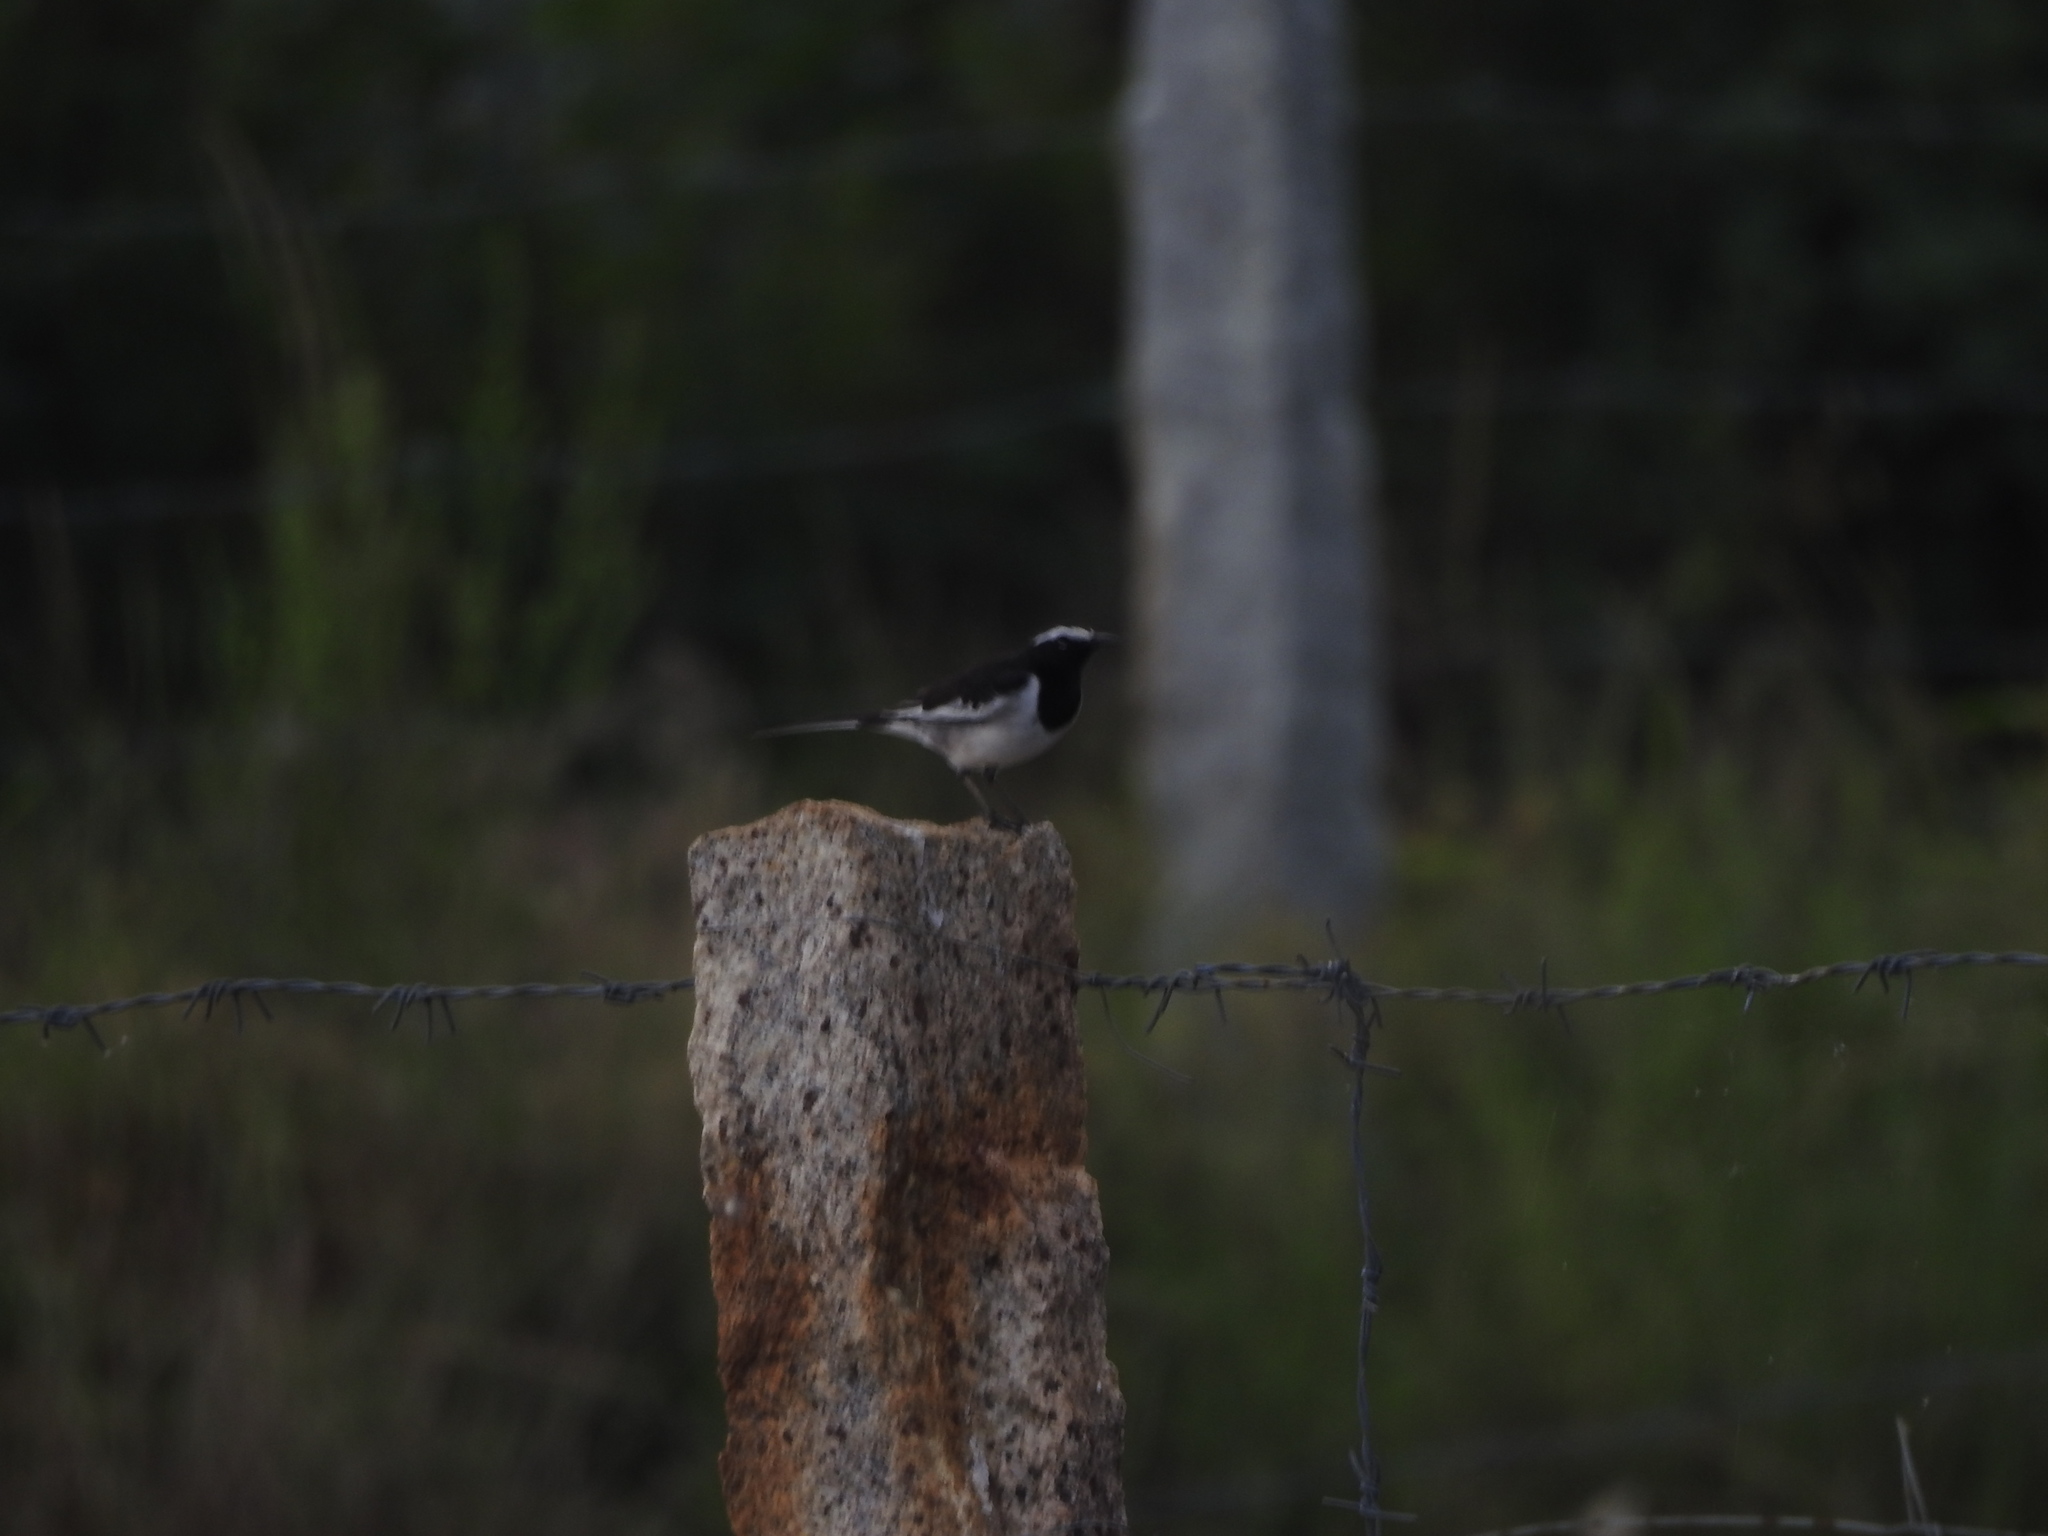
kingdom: Animalia
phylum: Chordata
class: Aves
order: Passeriformes
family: Motacillidae
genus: Motacilla
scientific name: Motacilla maderaspatensis
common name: White-browed wagtail
